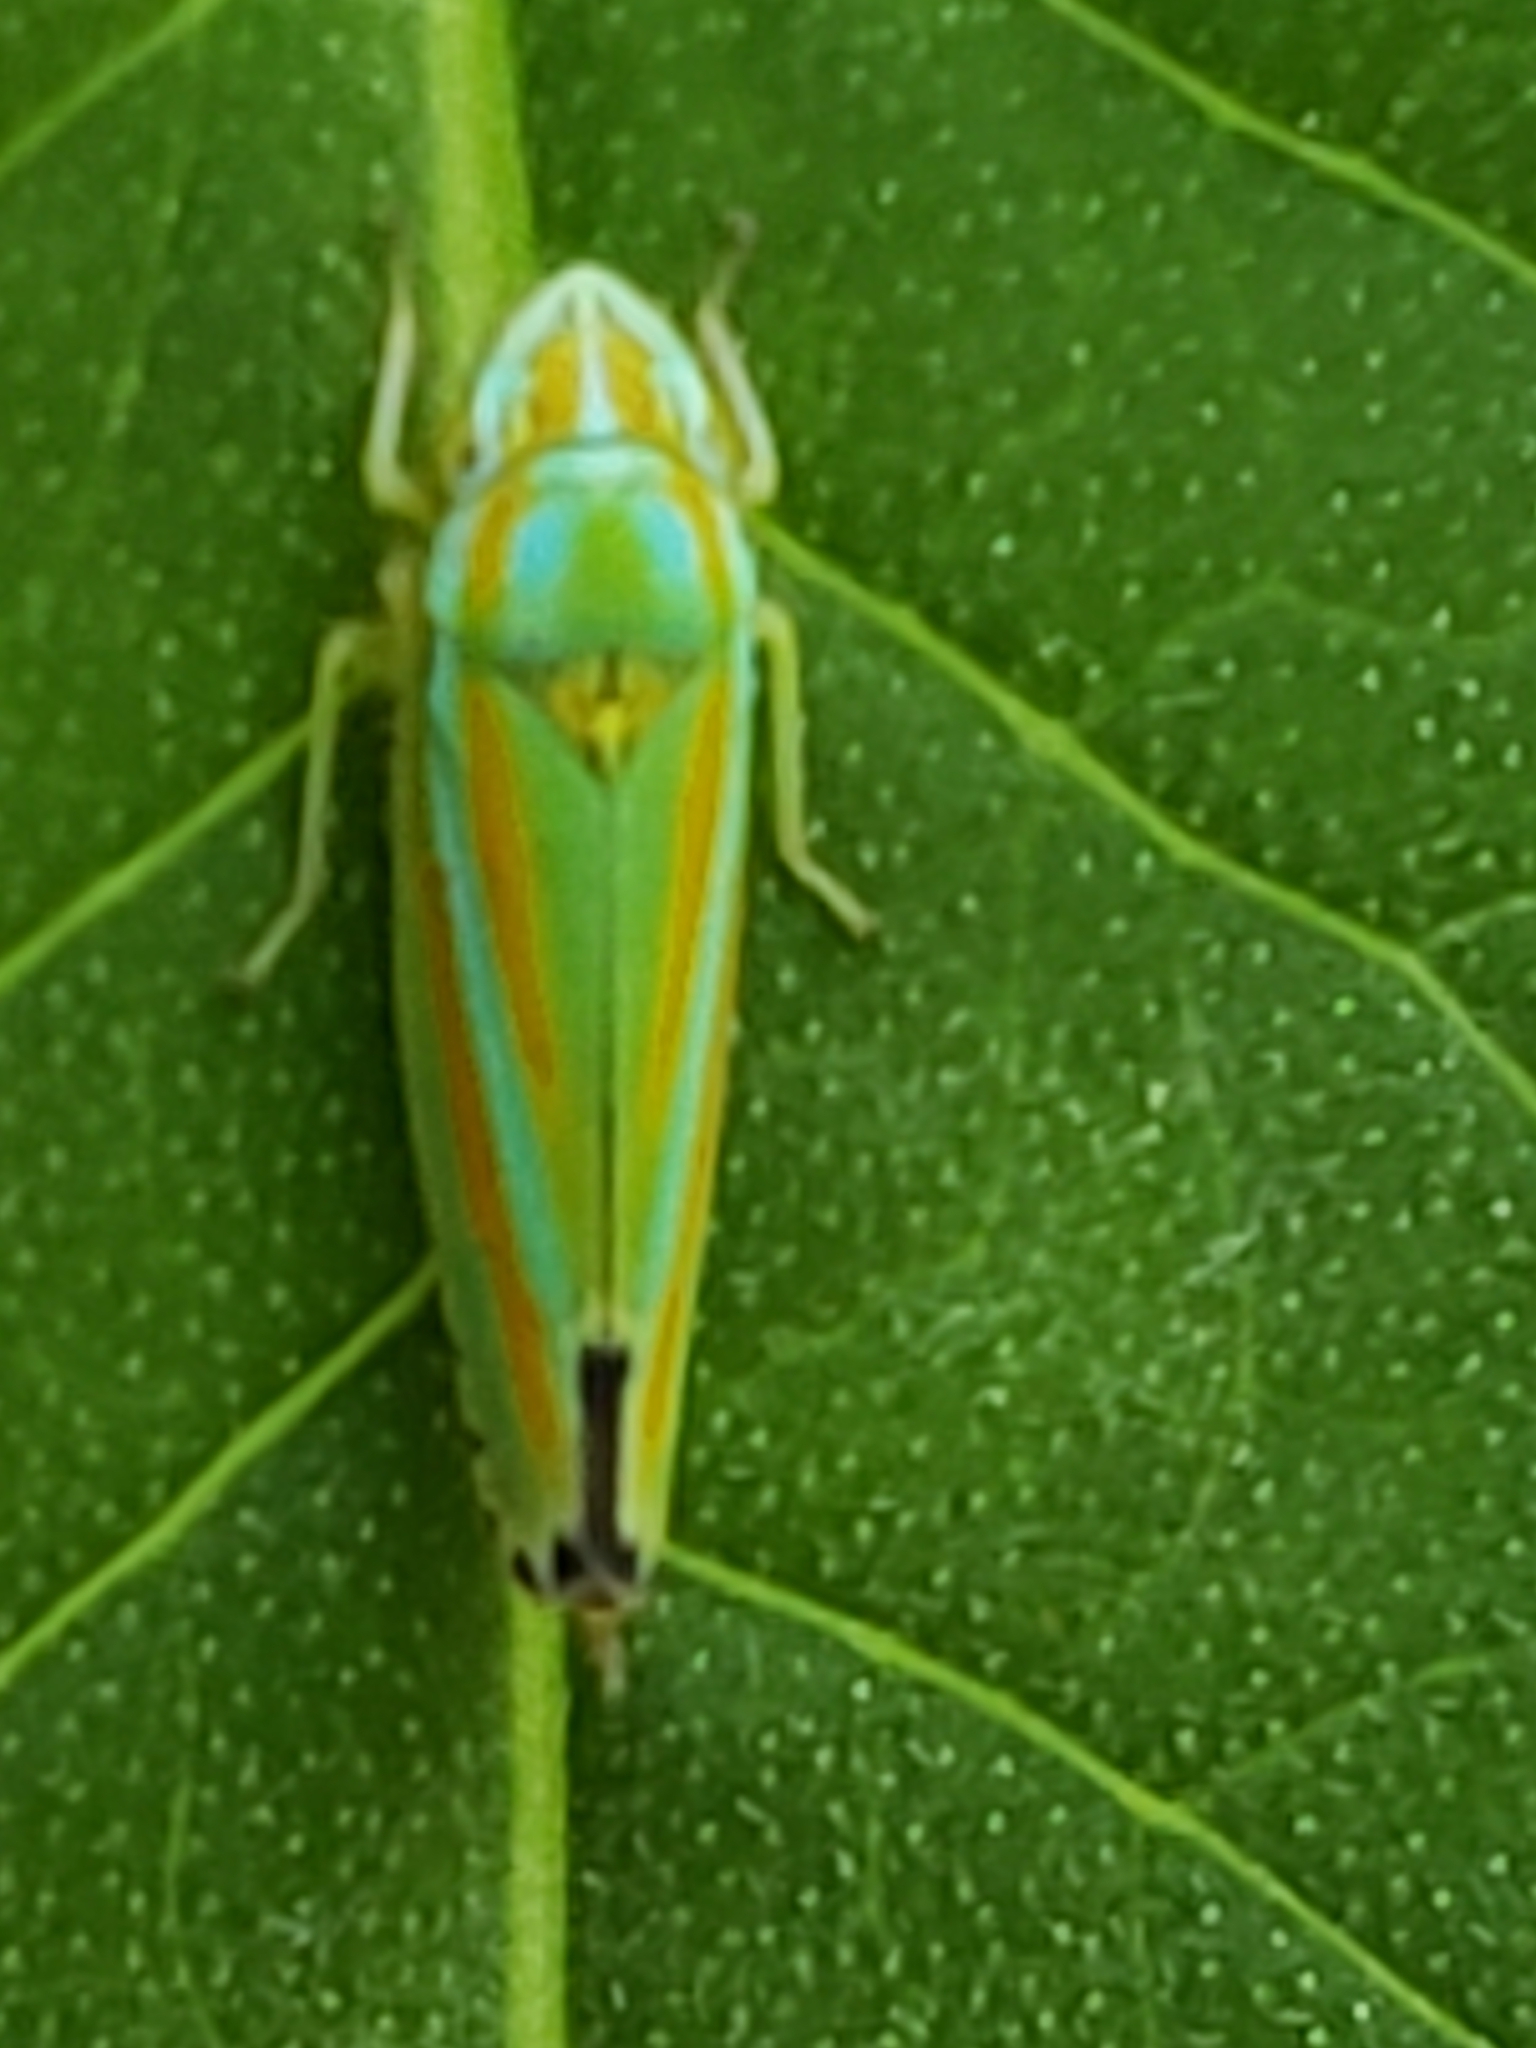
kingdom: Animalia
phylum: Arthropoda
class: Insecta
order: Hemiptera
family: Cicadellidae
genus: Graphocephala
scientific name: Graphocephala versuta
